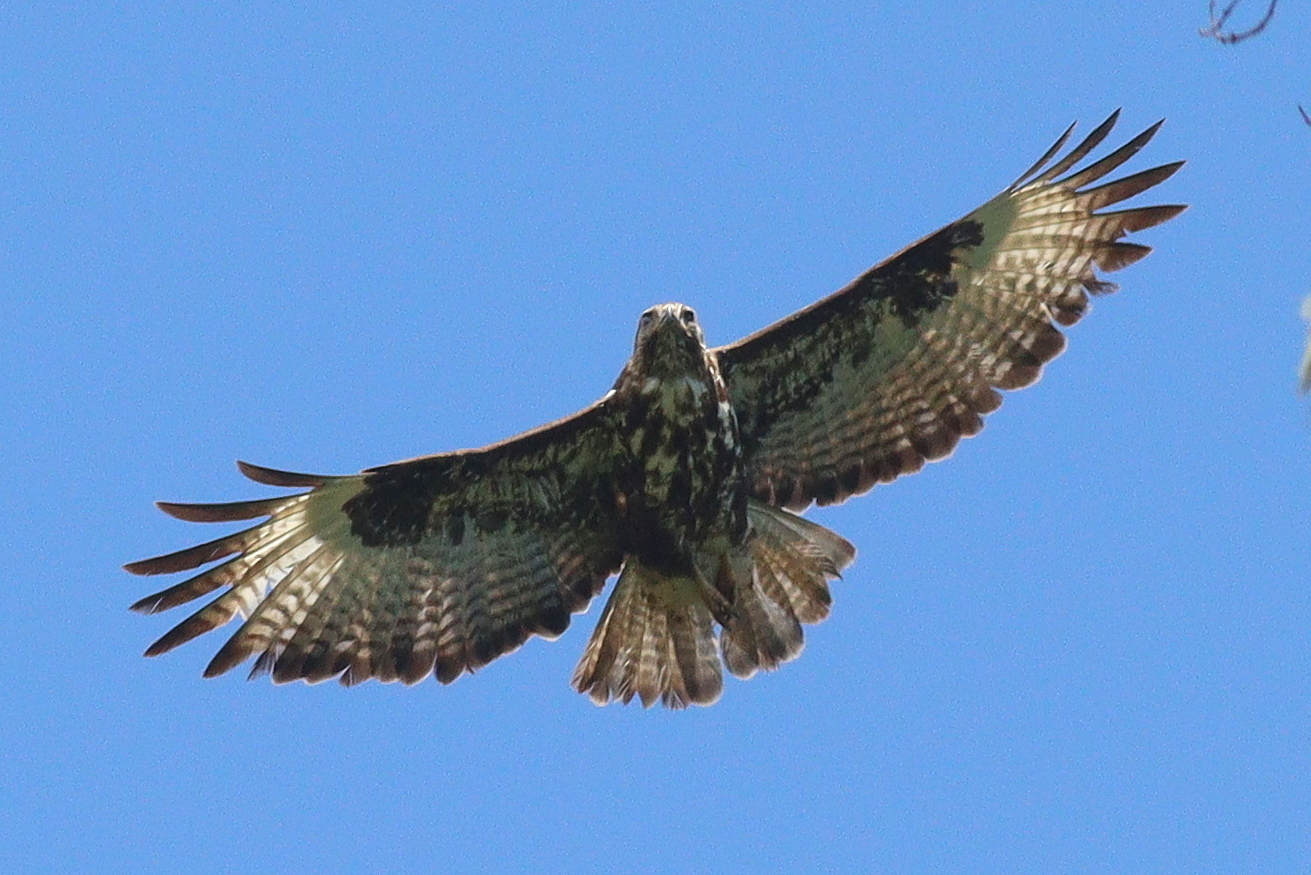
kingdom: Animalia
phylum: Chordata
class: Aves
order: Accipitriformes
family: Accipitridae
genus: Buteo
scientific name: Buteo oreophilus
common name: Mountain buzzard
